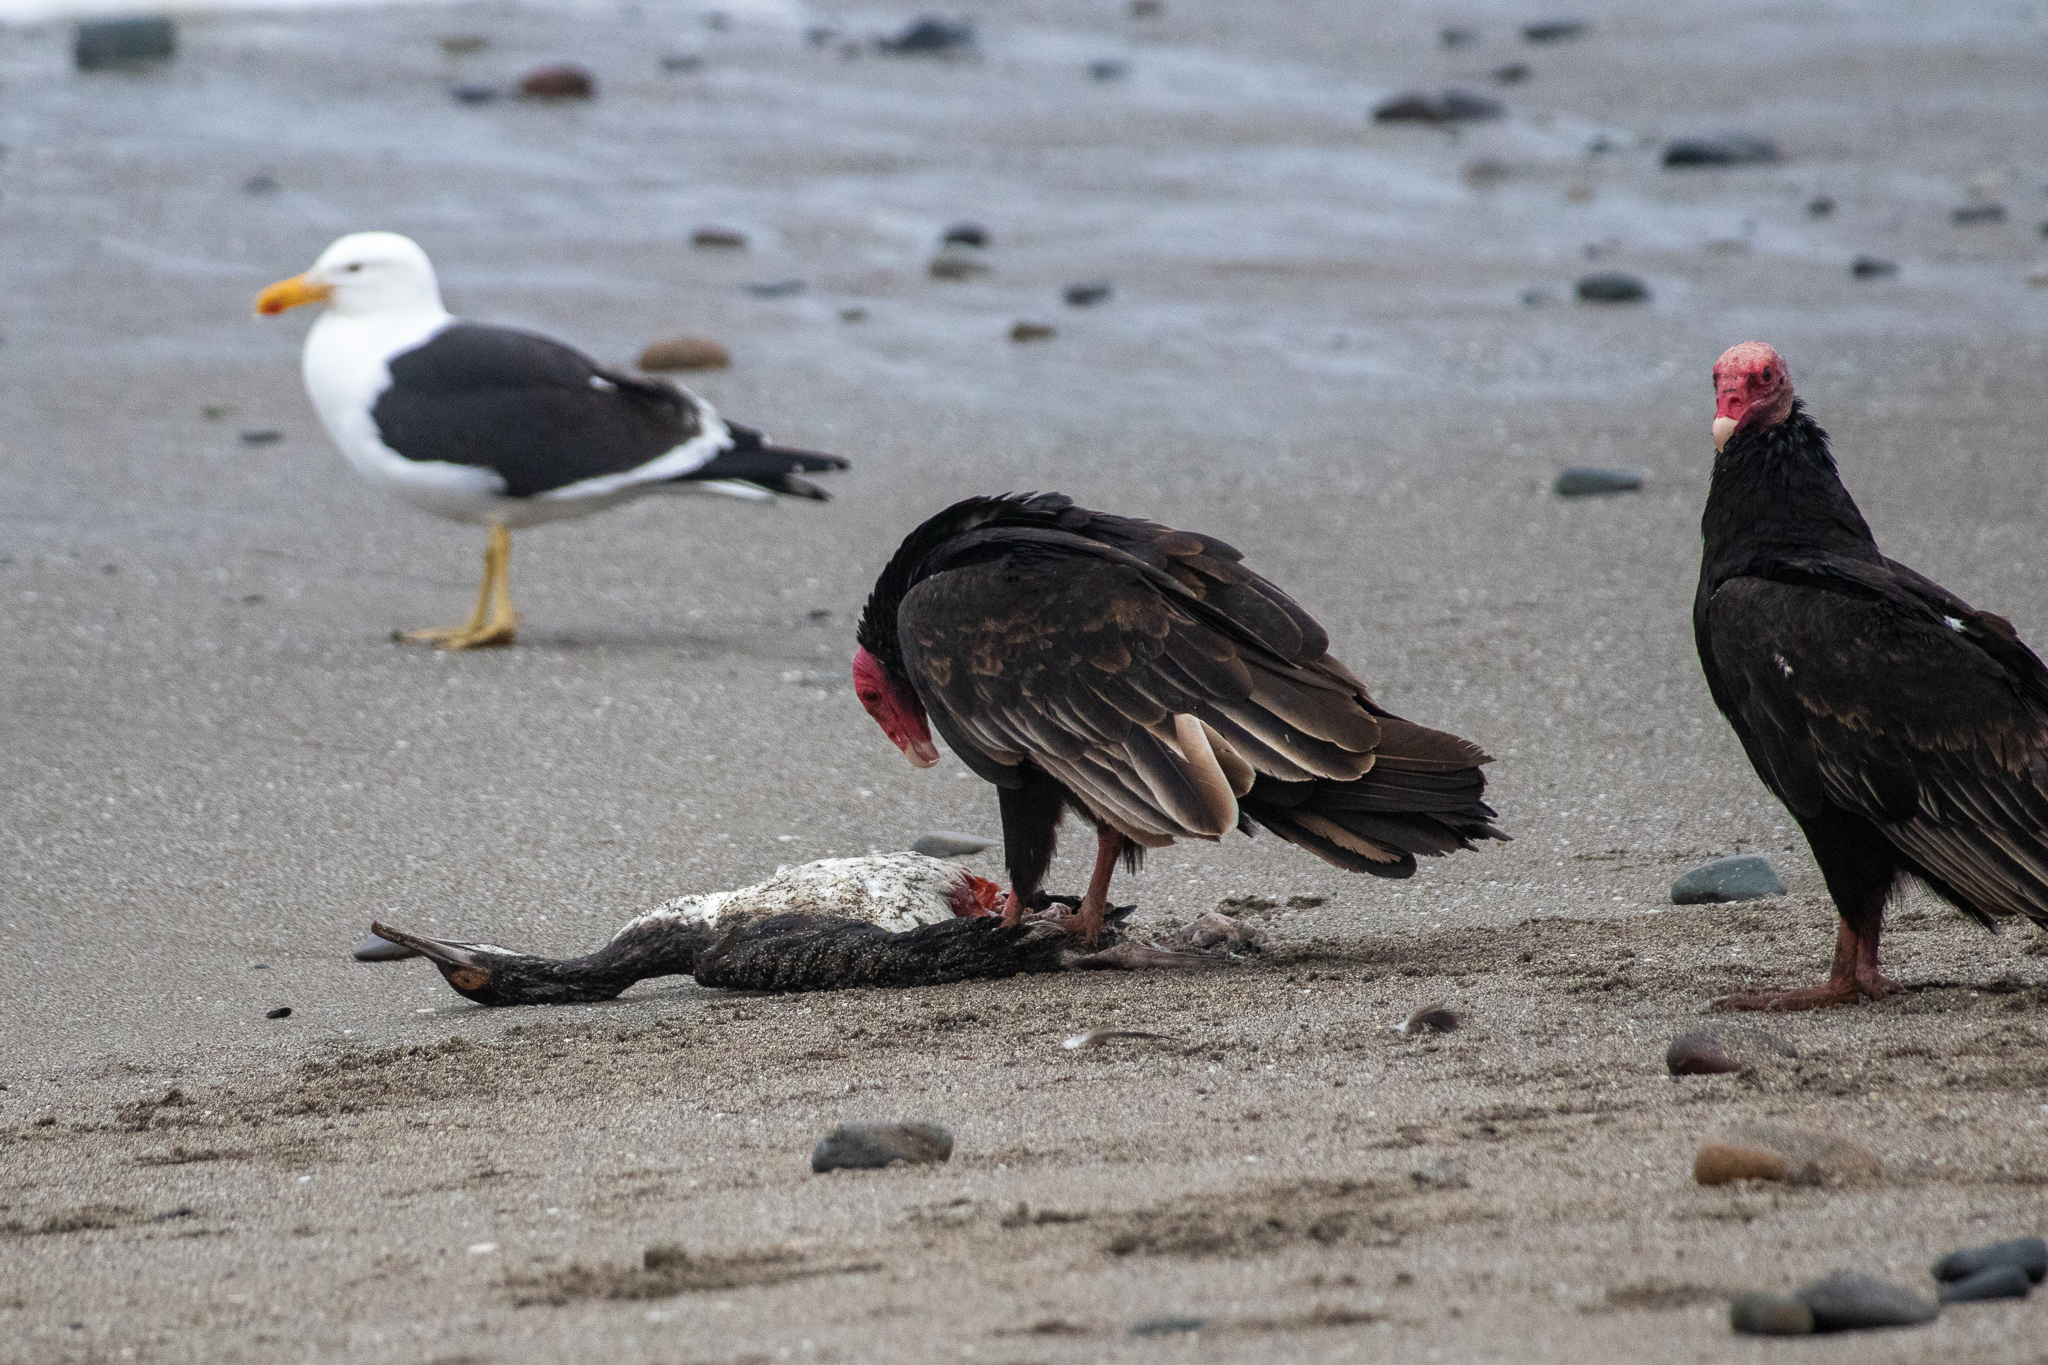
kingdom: Animalia
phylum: Chordata
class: Aves
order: Accipitriformes
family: Cathartidae
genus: Cathartes
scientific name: Cathartes aura
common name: Turkey vulture
